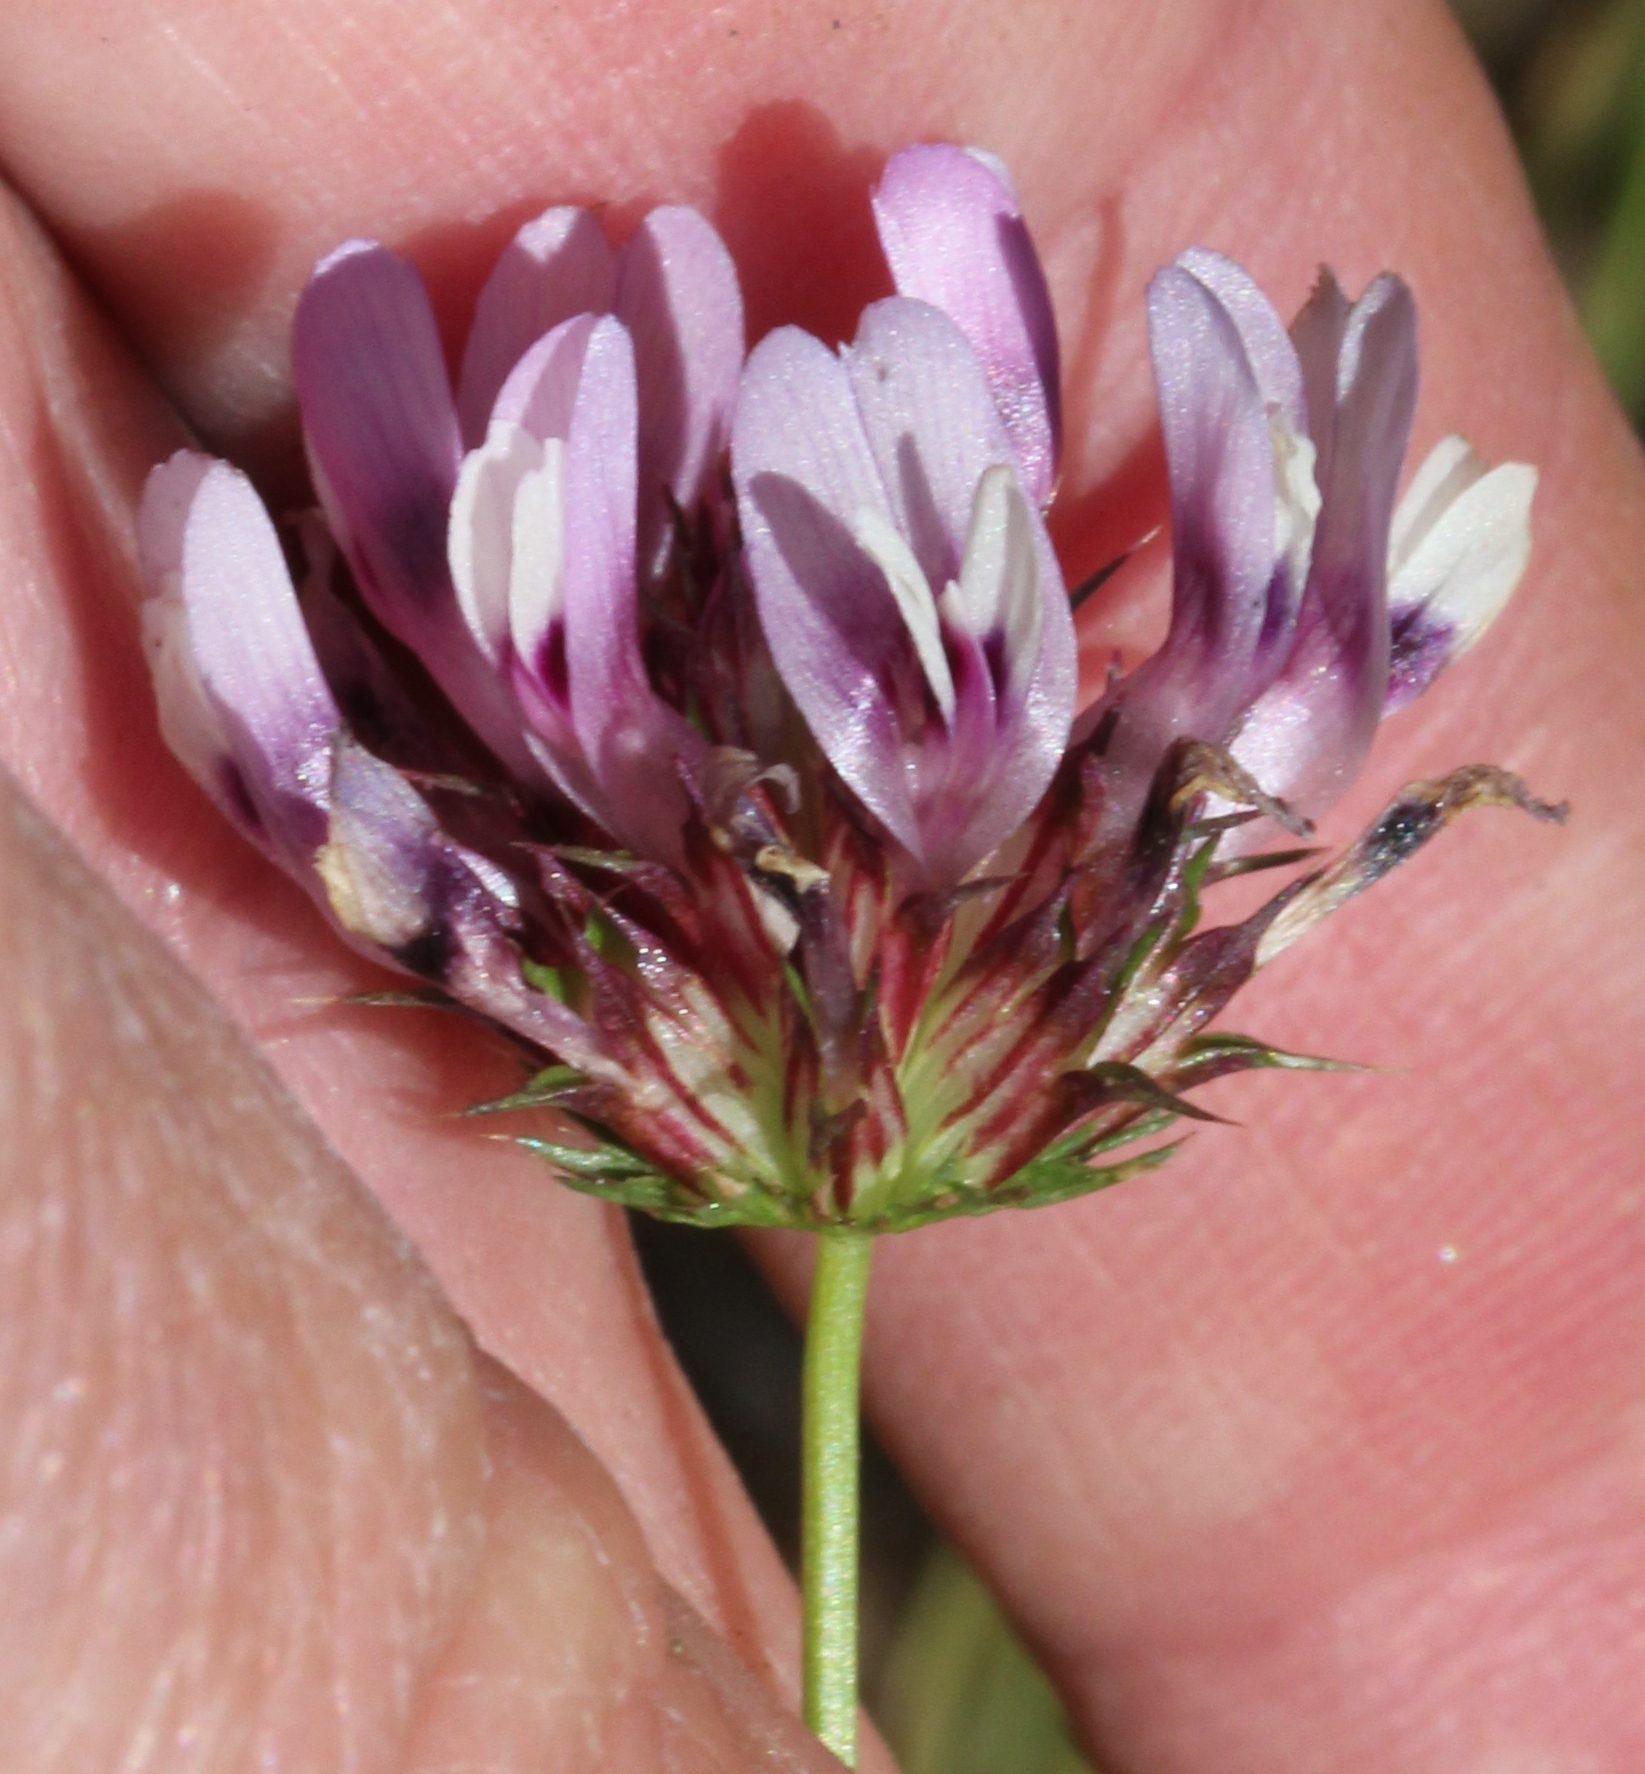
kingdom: Plantae
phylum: Tracheophyta
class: Magnoliopsida
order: Fabales
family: Fabaceae
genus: Trifolium
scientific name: Trifolium willdenovii
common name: Tomcat clover
